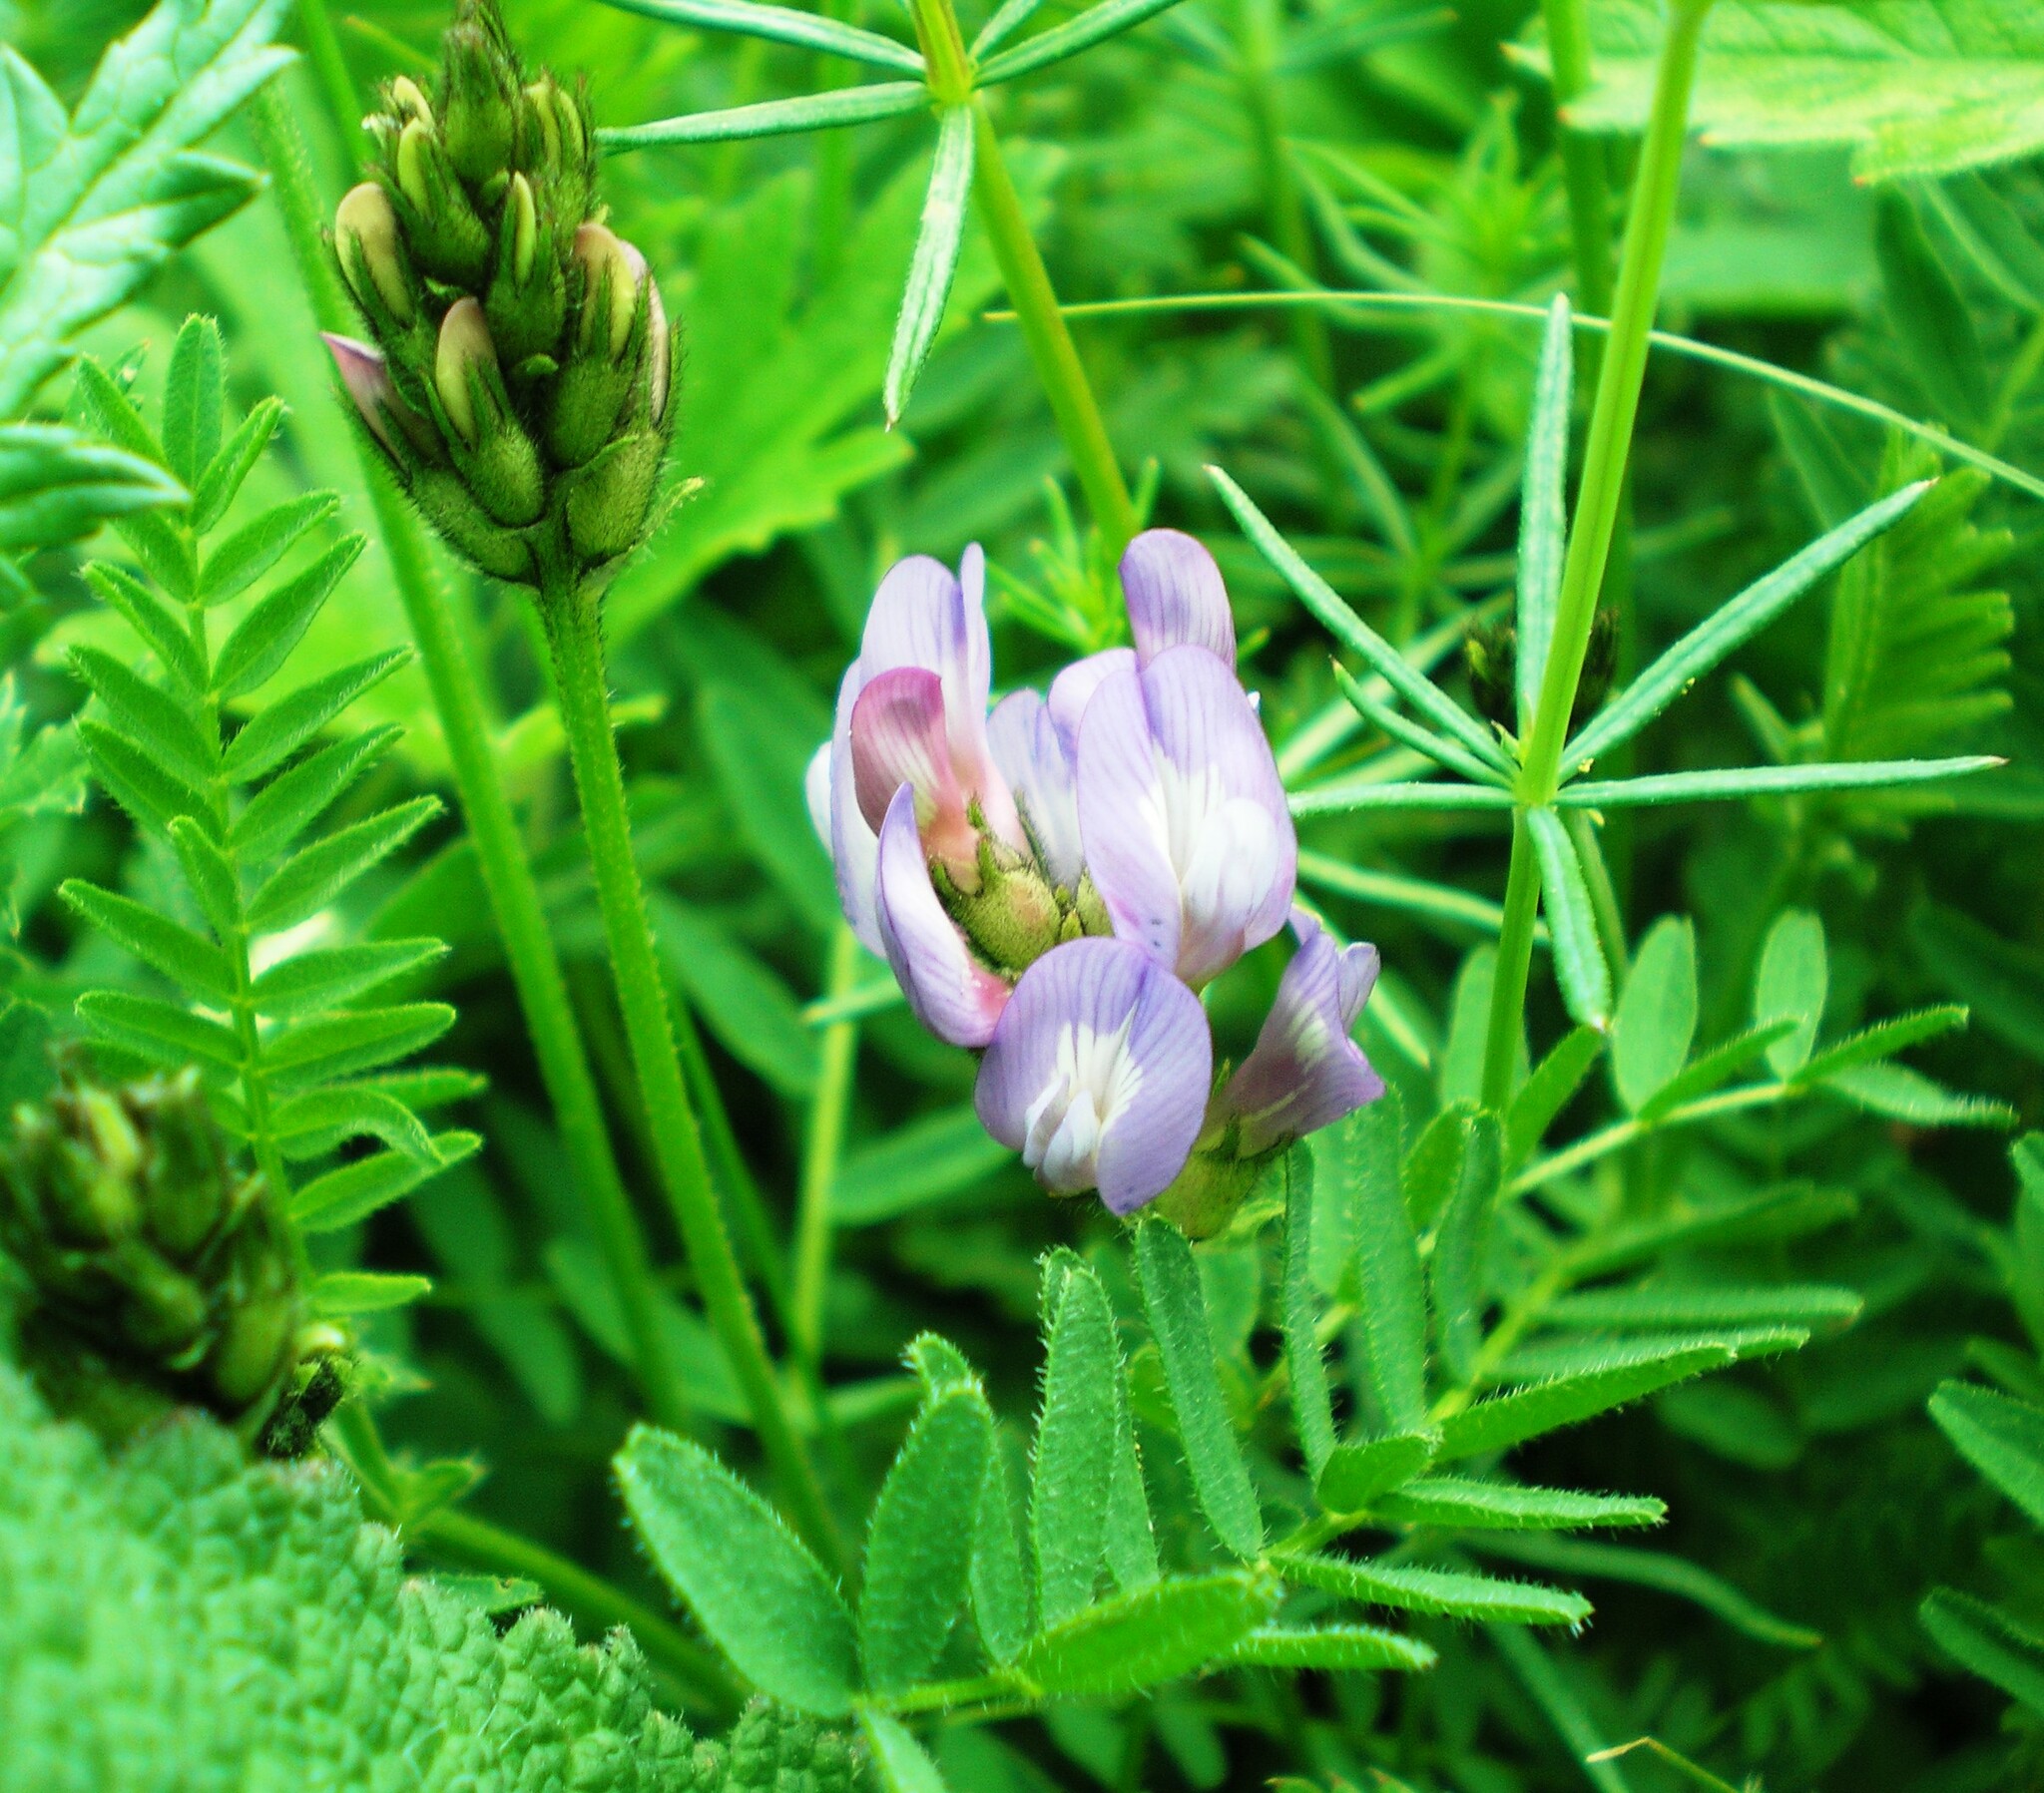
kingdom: Plantae
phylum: Tracheophyta
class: Magnoliopsida
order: Fabales
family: Fabaceae
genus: Astragalus
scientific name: Astragalus danicus
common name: Purple milk-vetch
